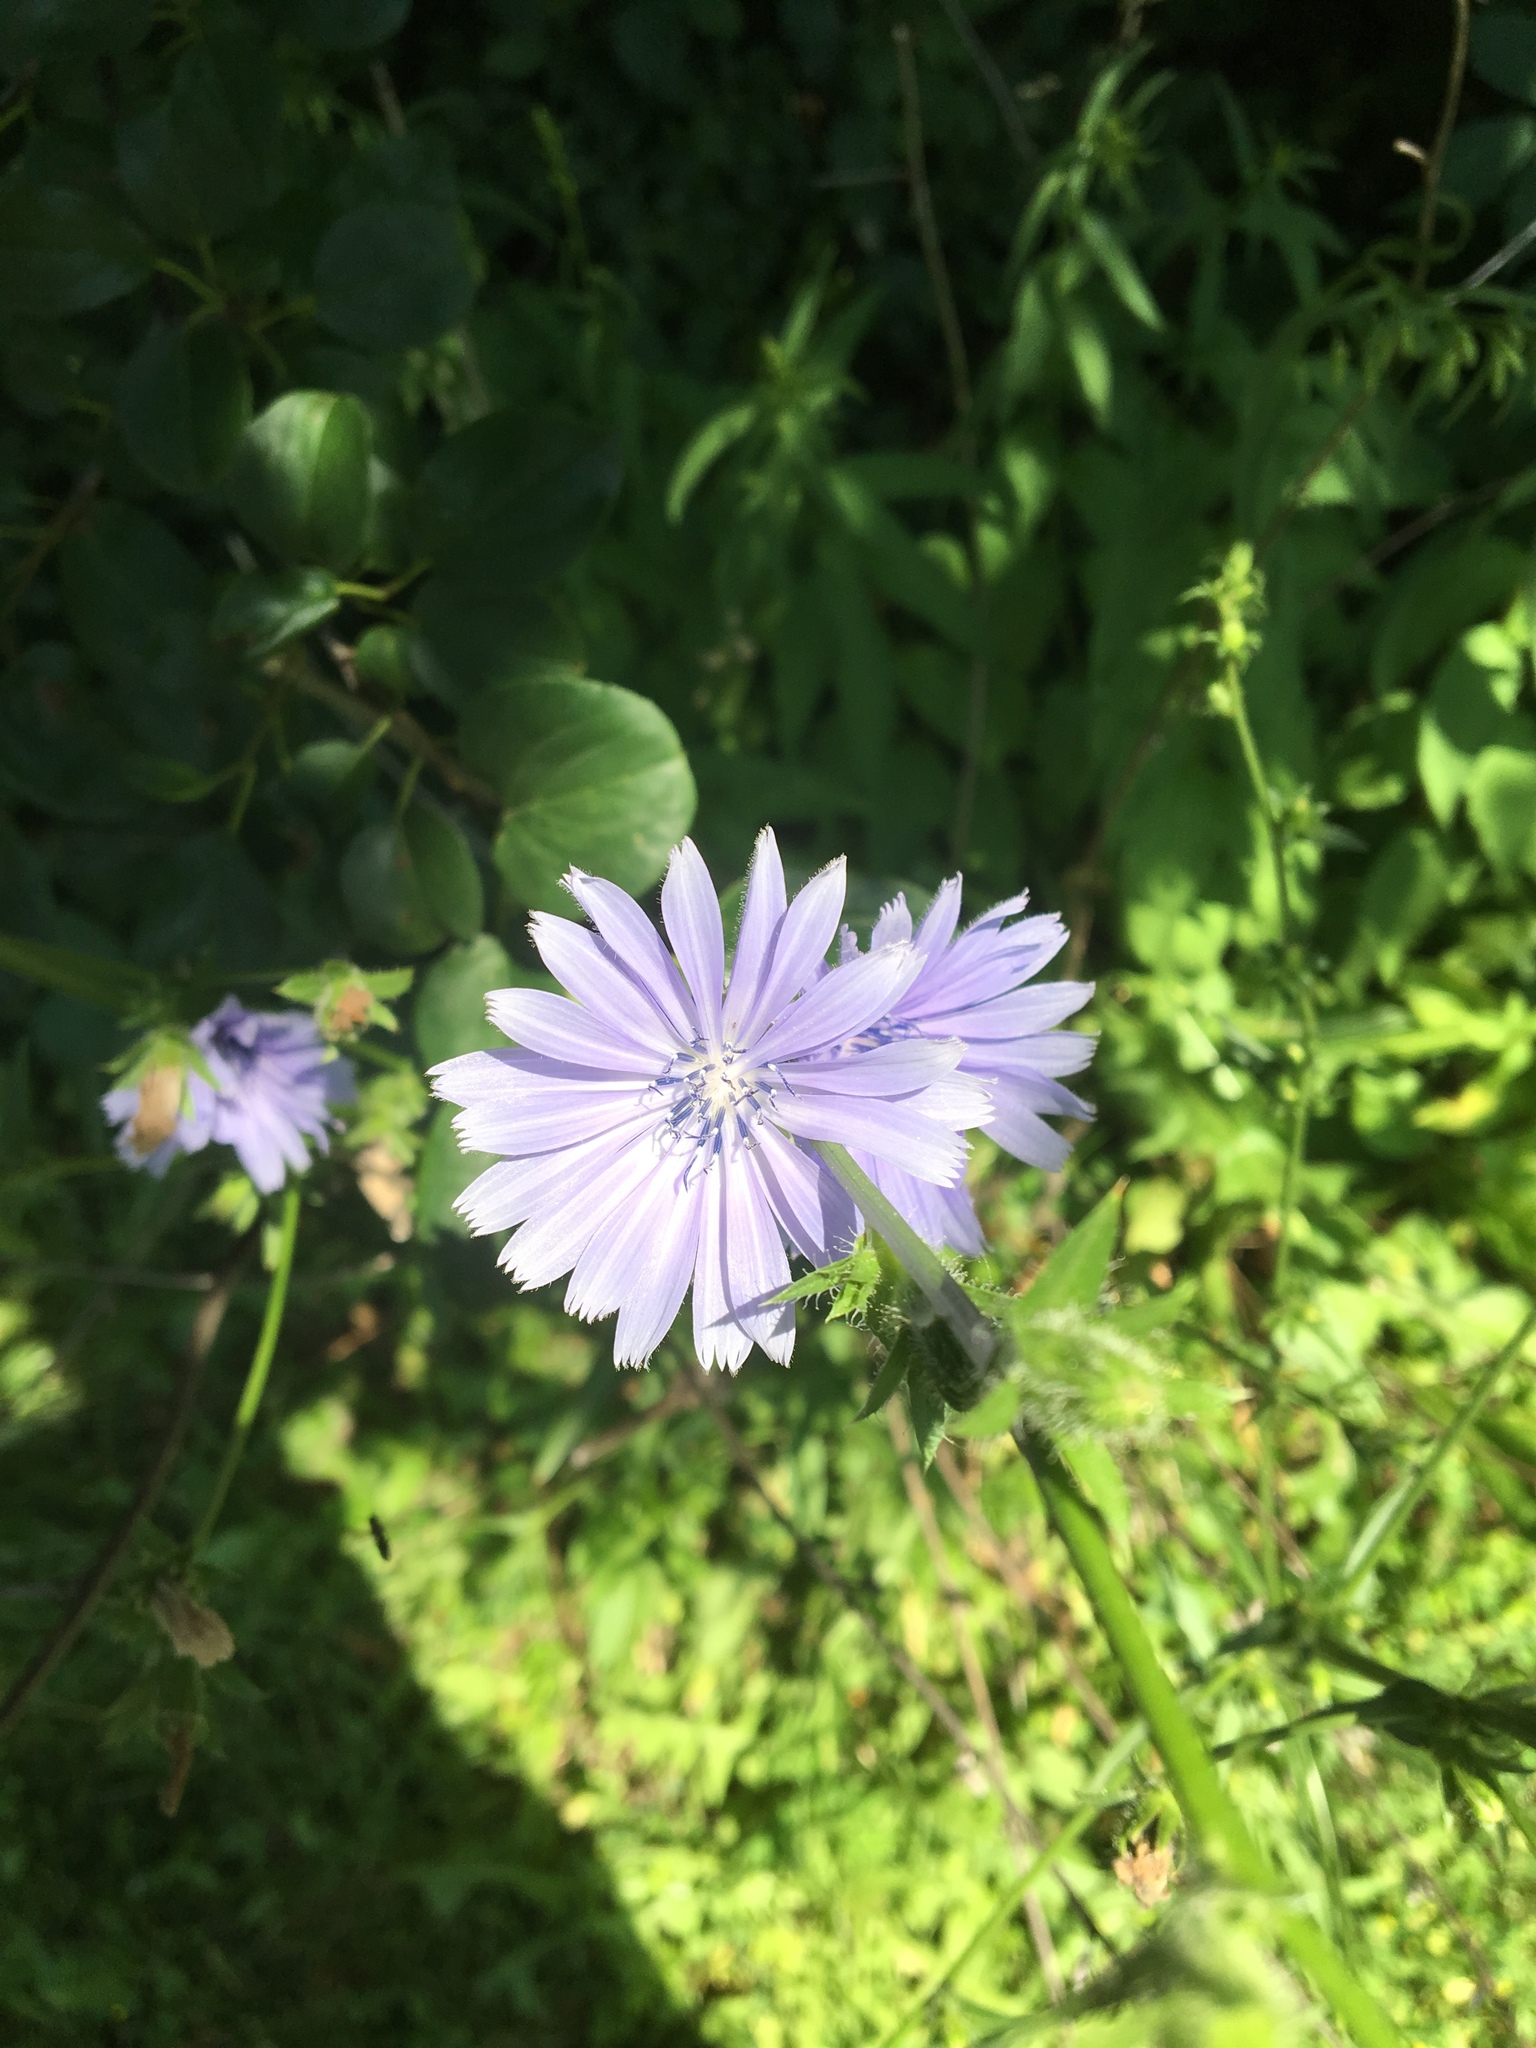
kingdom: Plantae
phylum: Tracheophyta
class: Magnoliopsida
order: Asterales
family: Asteraceae
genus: Cichorium
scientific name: Cichorium intybus
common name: Chicory
